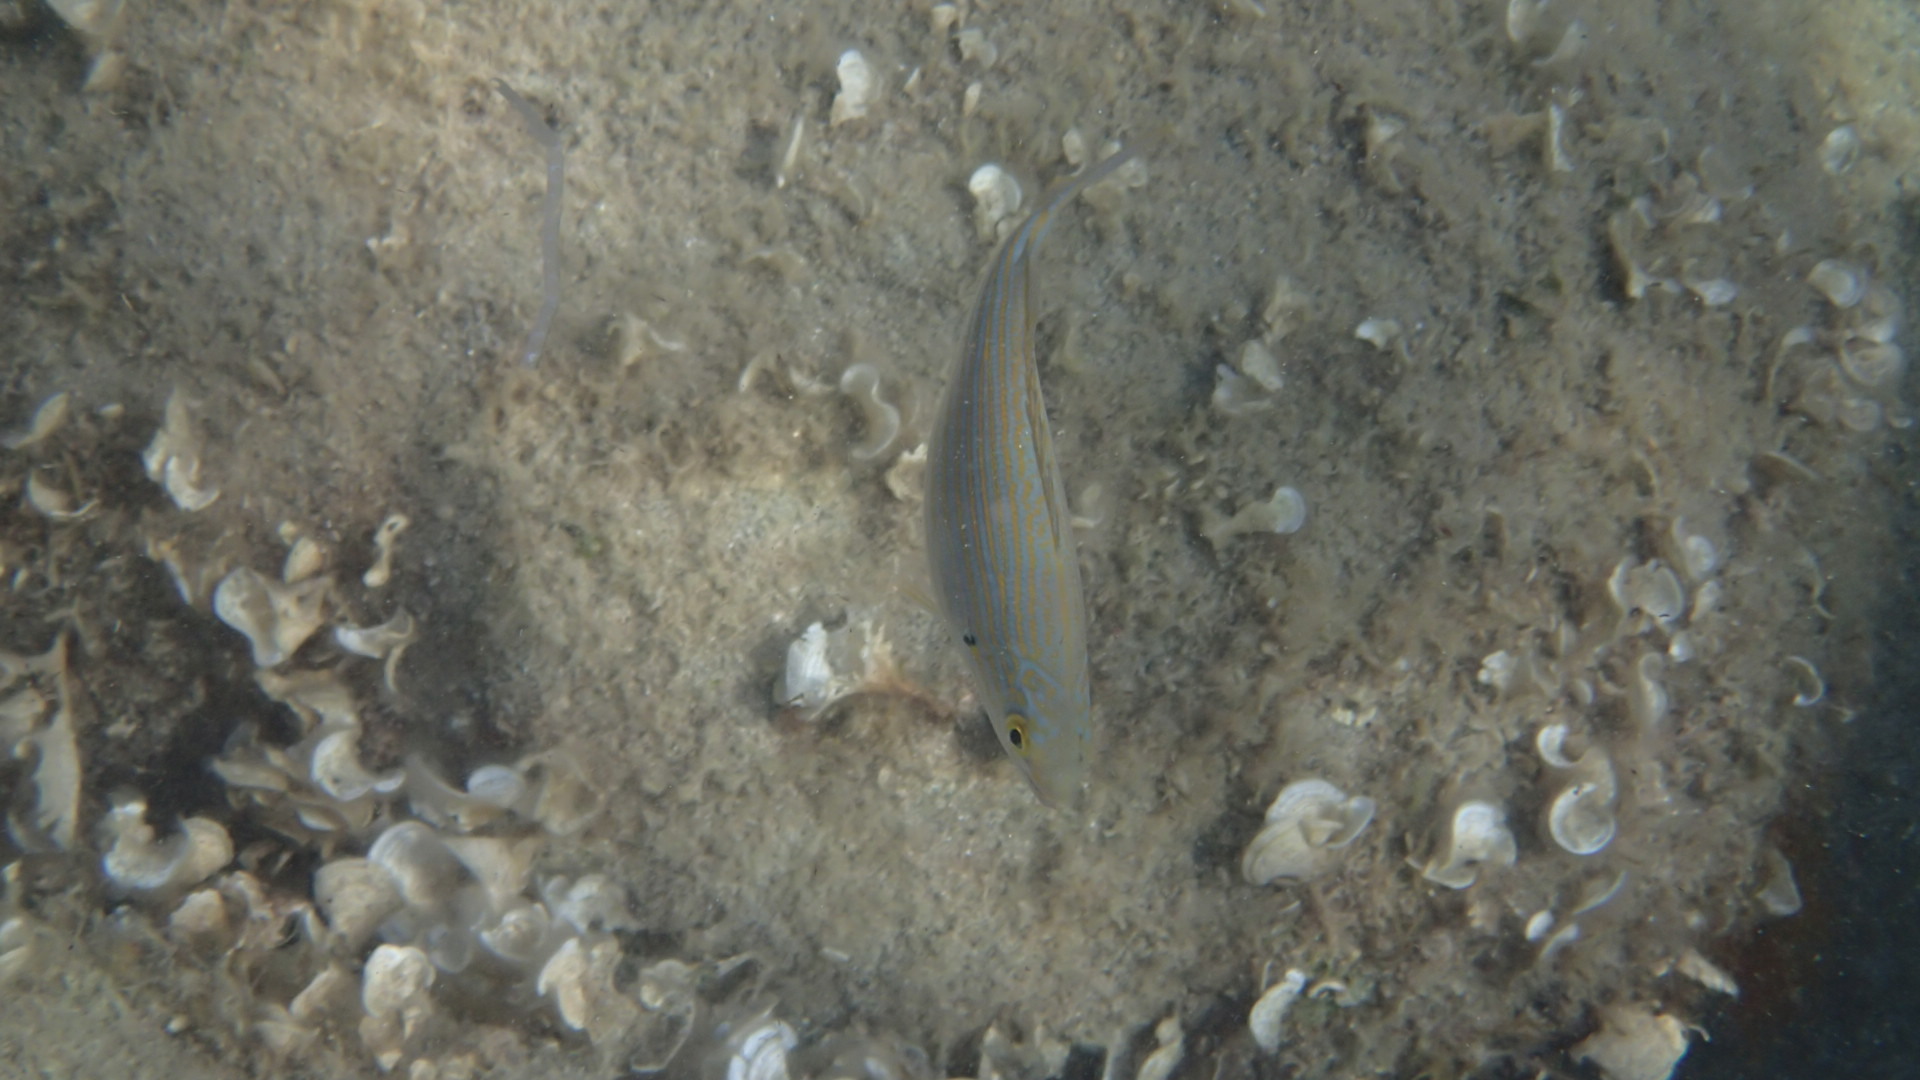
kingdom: Animalia
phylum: Chordata
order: Perciformes
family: Sparidae
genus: Sarpa
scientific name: Sarpa salpa
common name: Salema
